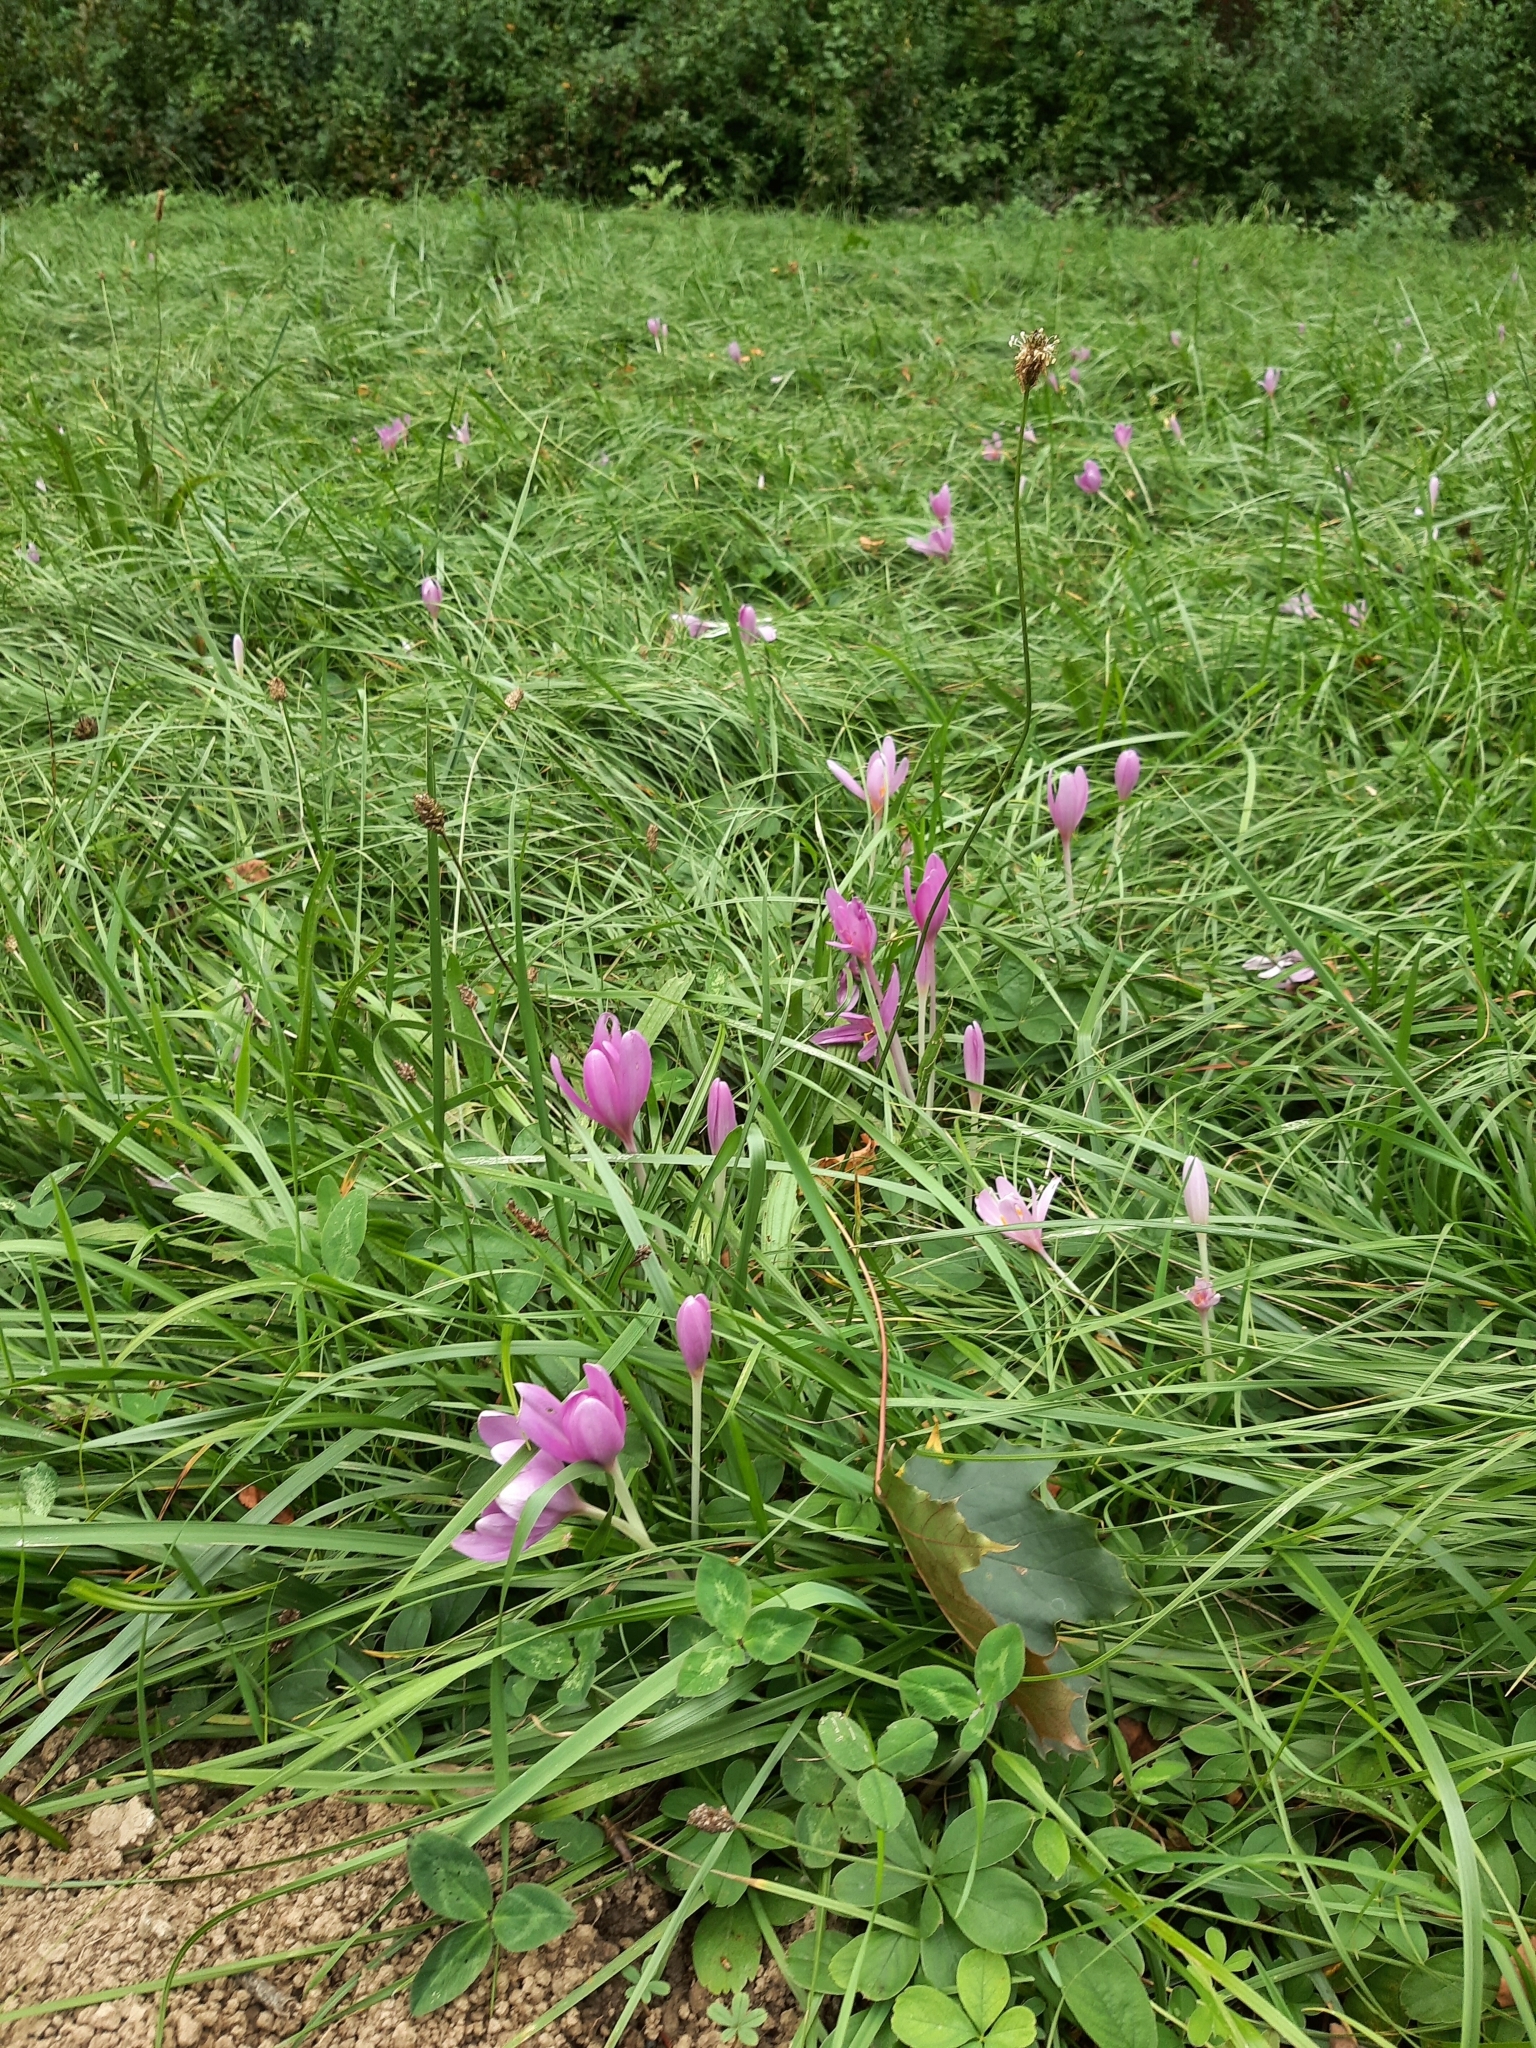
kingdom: Plantae
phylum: Tracheophyta
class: Liliopsida
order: Liliales
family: Colchicaceae
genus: Colchicum
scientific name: Colchicum autumnale
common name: Autumn crocus
